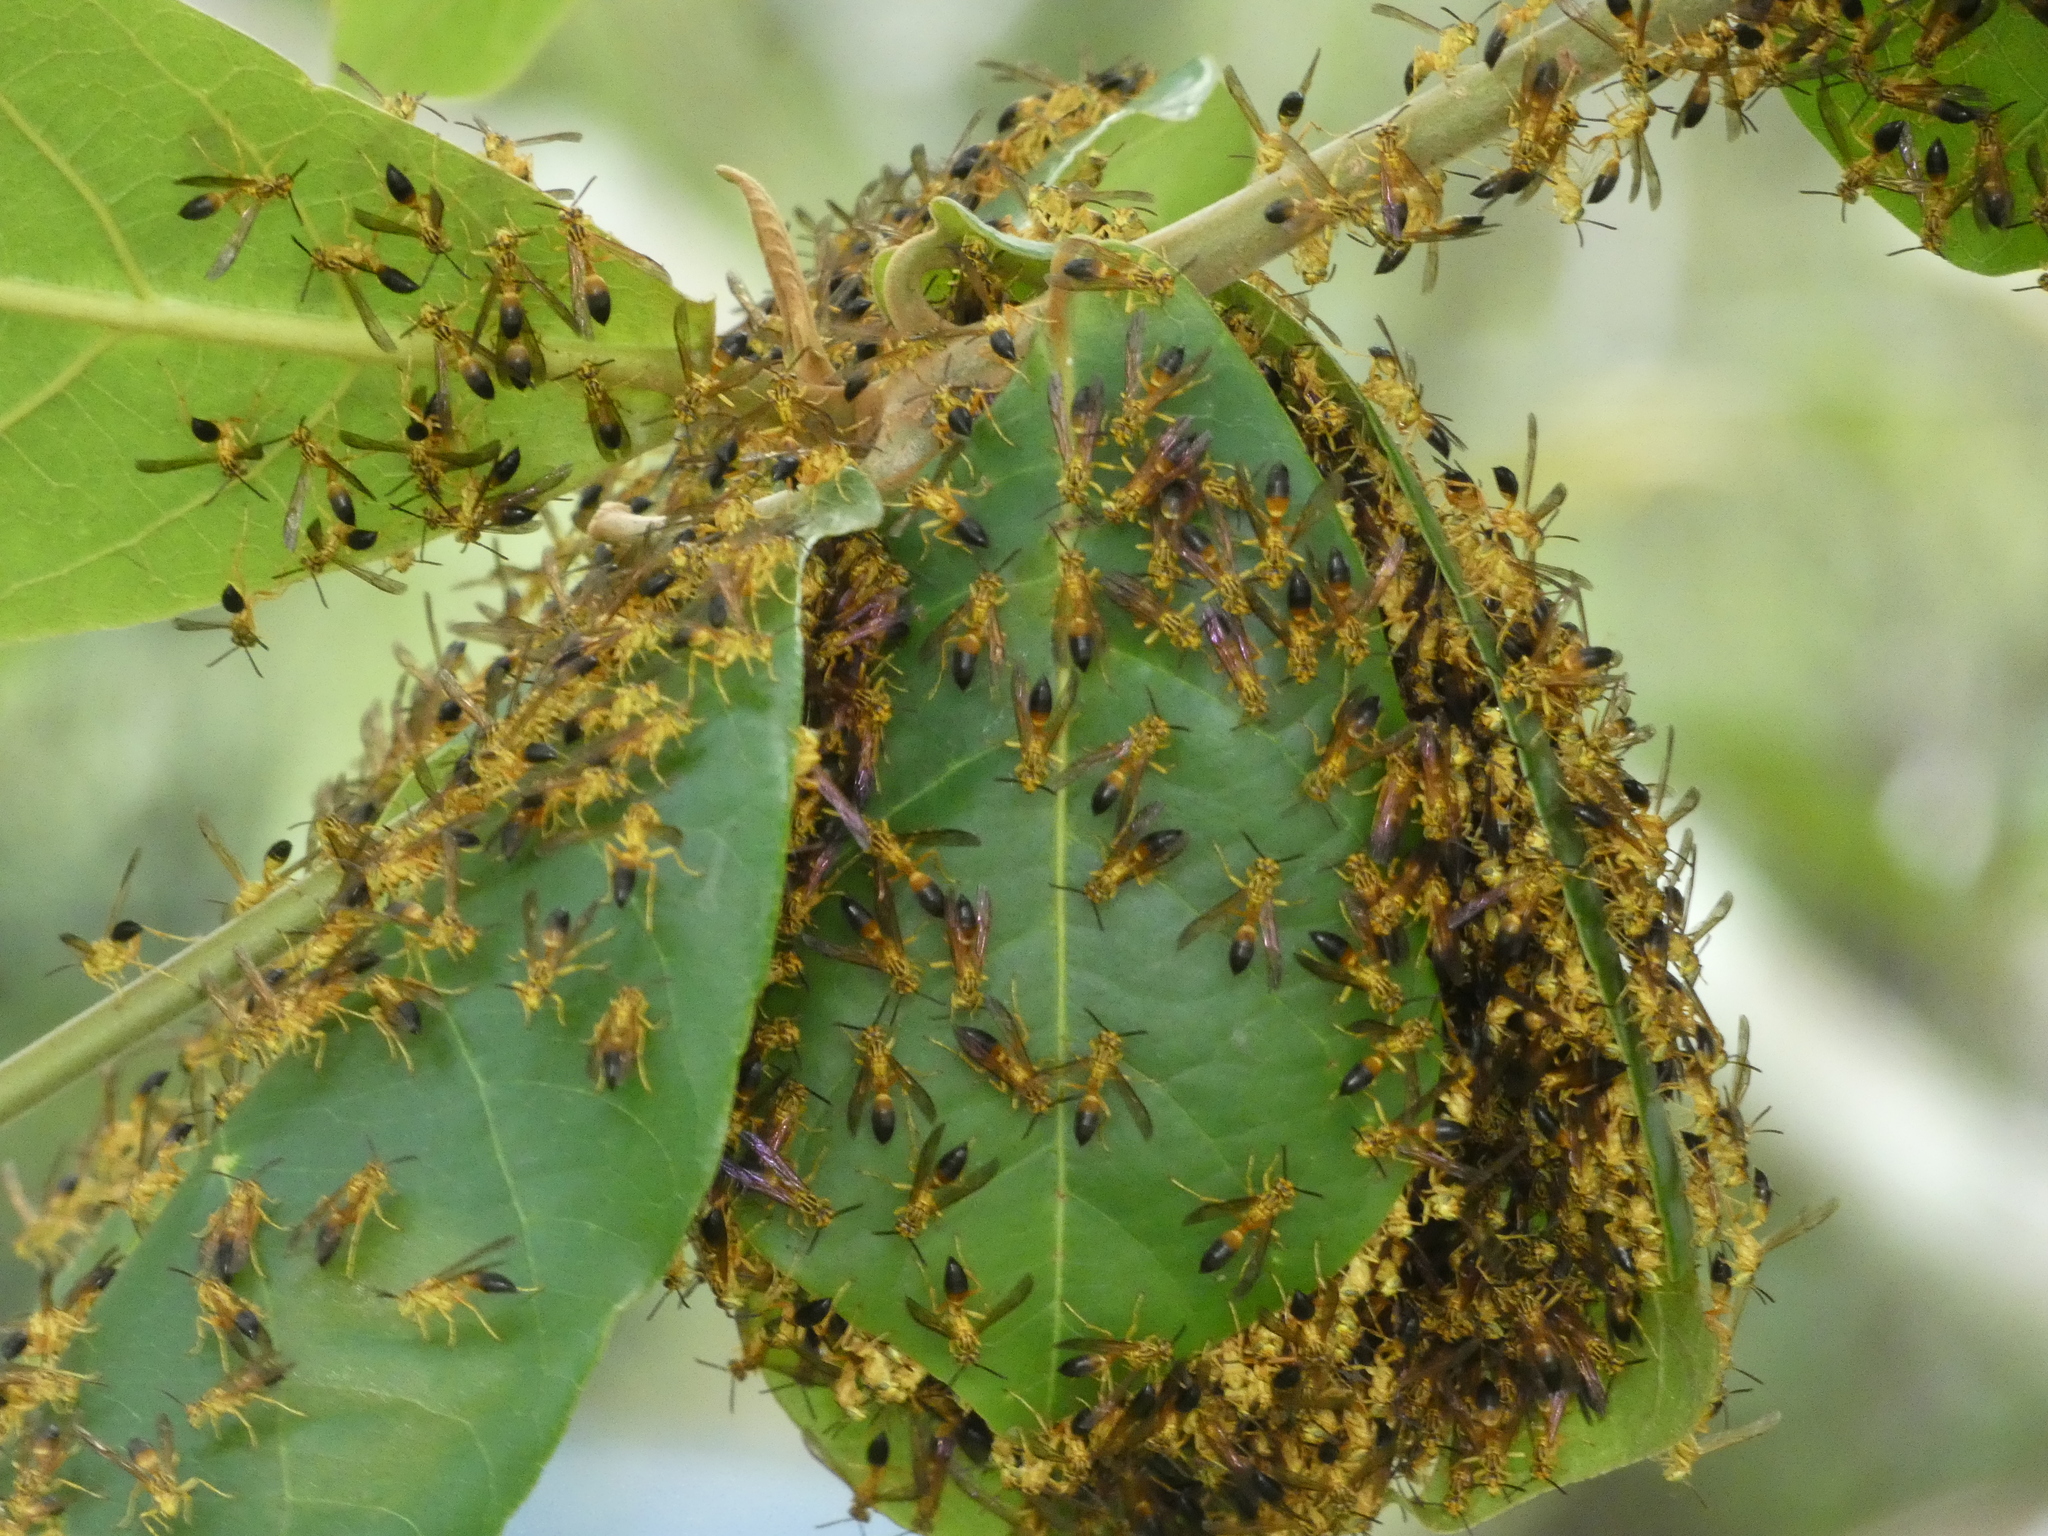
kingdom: Animalia
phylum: Arthropoda
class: Insecta
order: Hymenoptera
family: Vespidae
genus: Agelaia
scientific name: Agelaia pallipes
